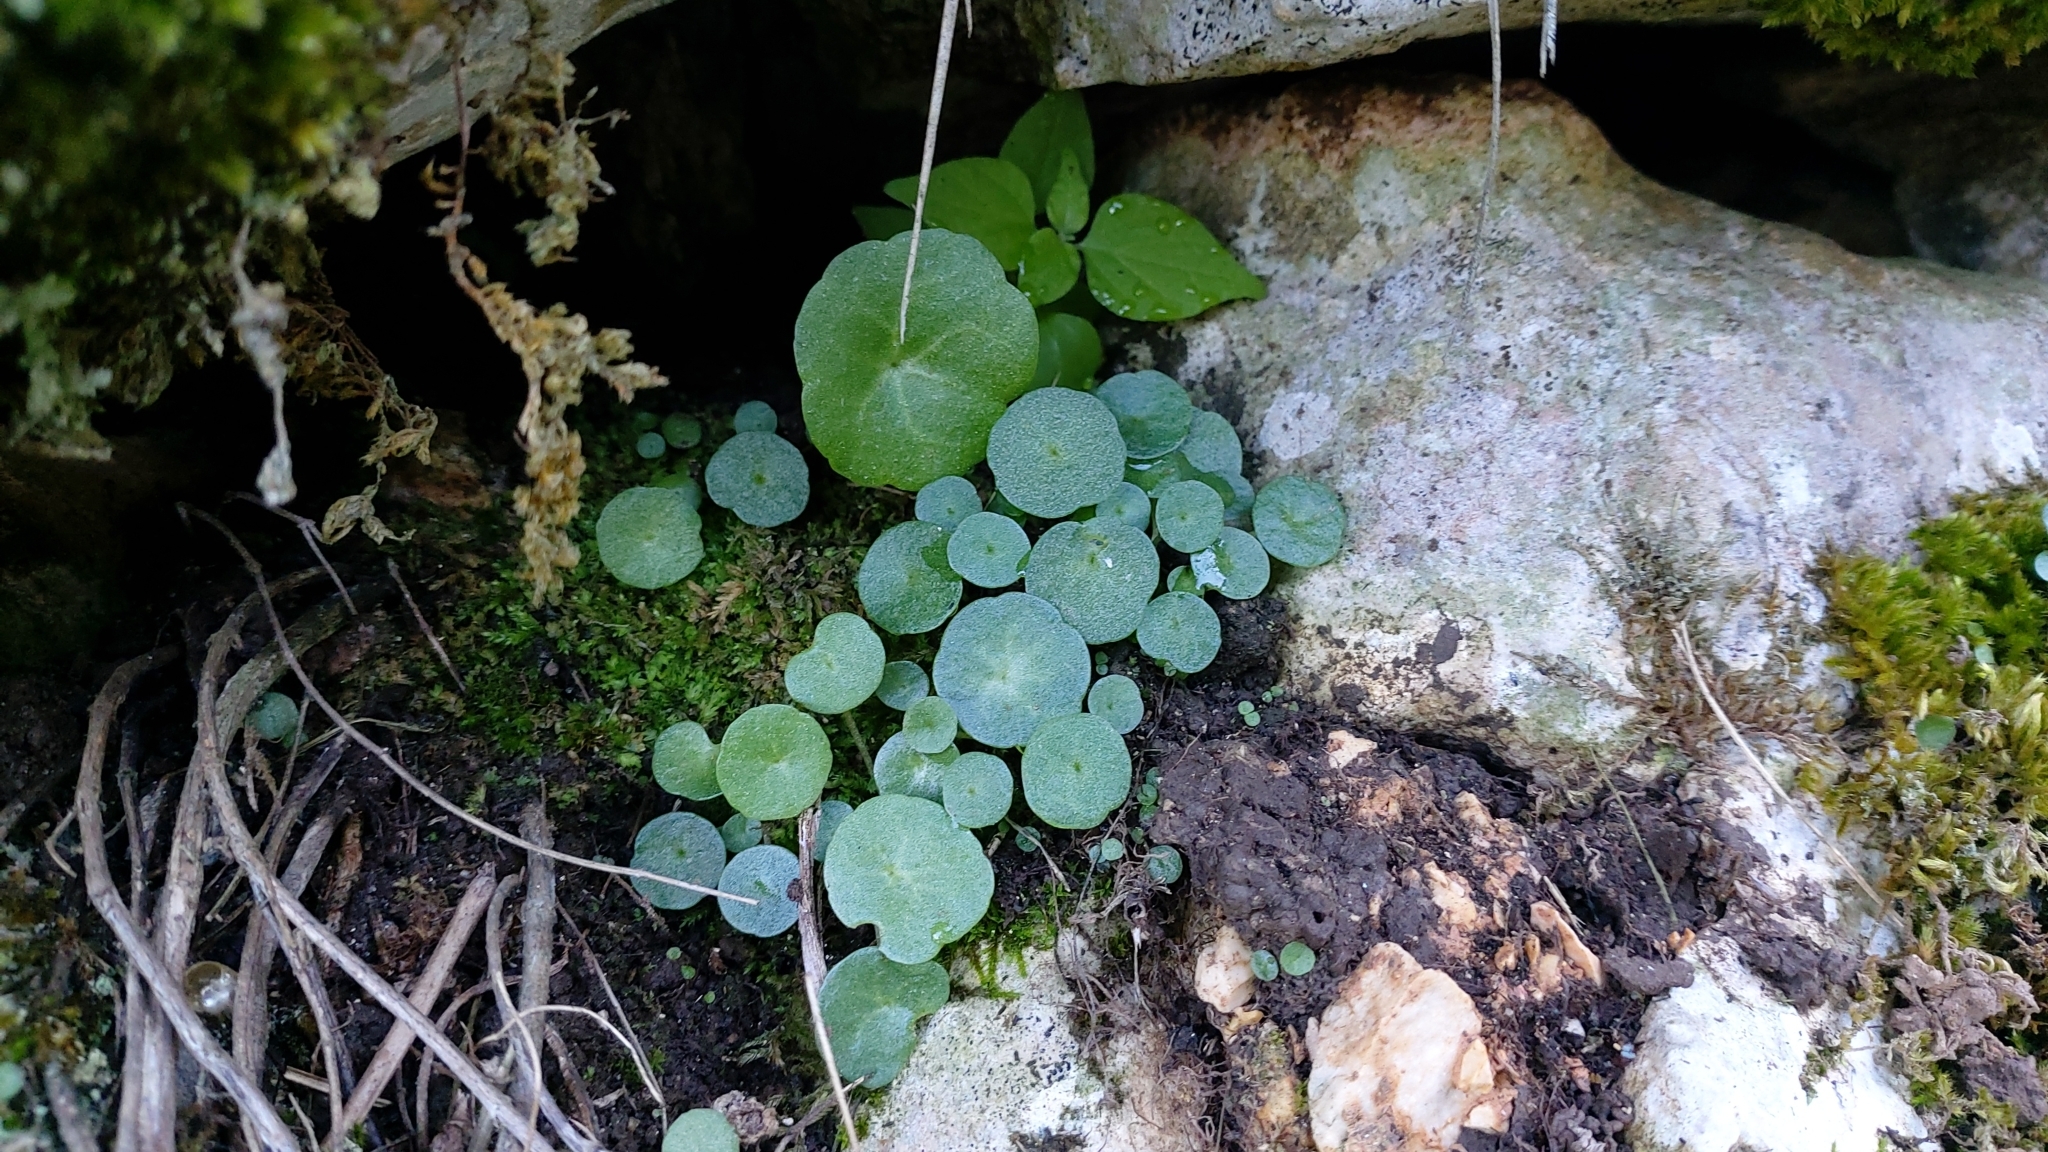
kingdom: Plantae
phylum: Tracheophyta
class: Magnoliopsida
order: Saxifragales
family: Crassulaceae
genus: Umbilicus
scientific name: Umbilicus rupestris
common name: Navelwort
